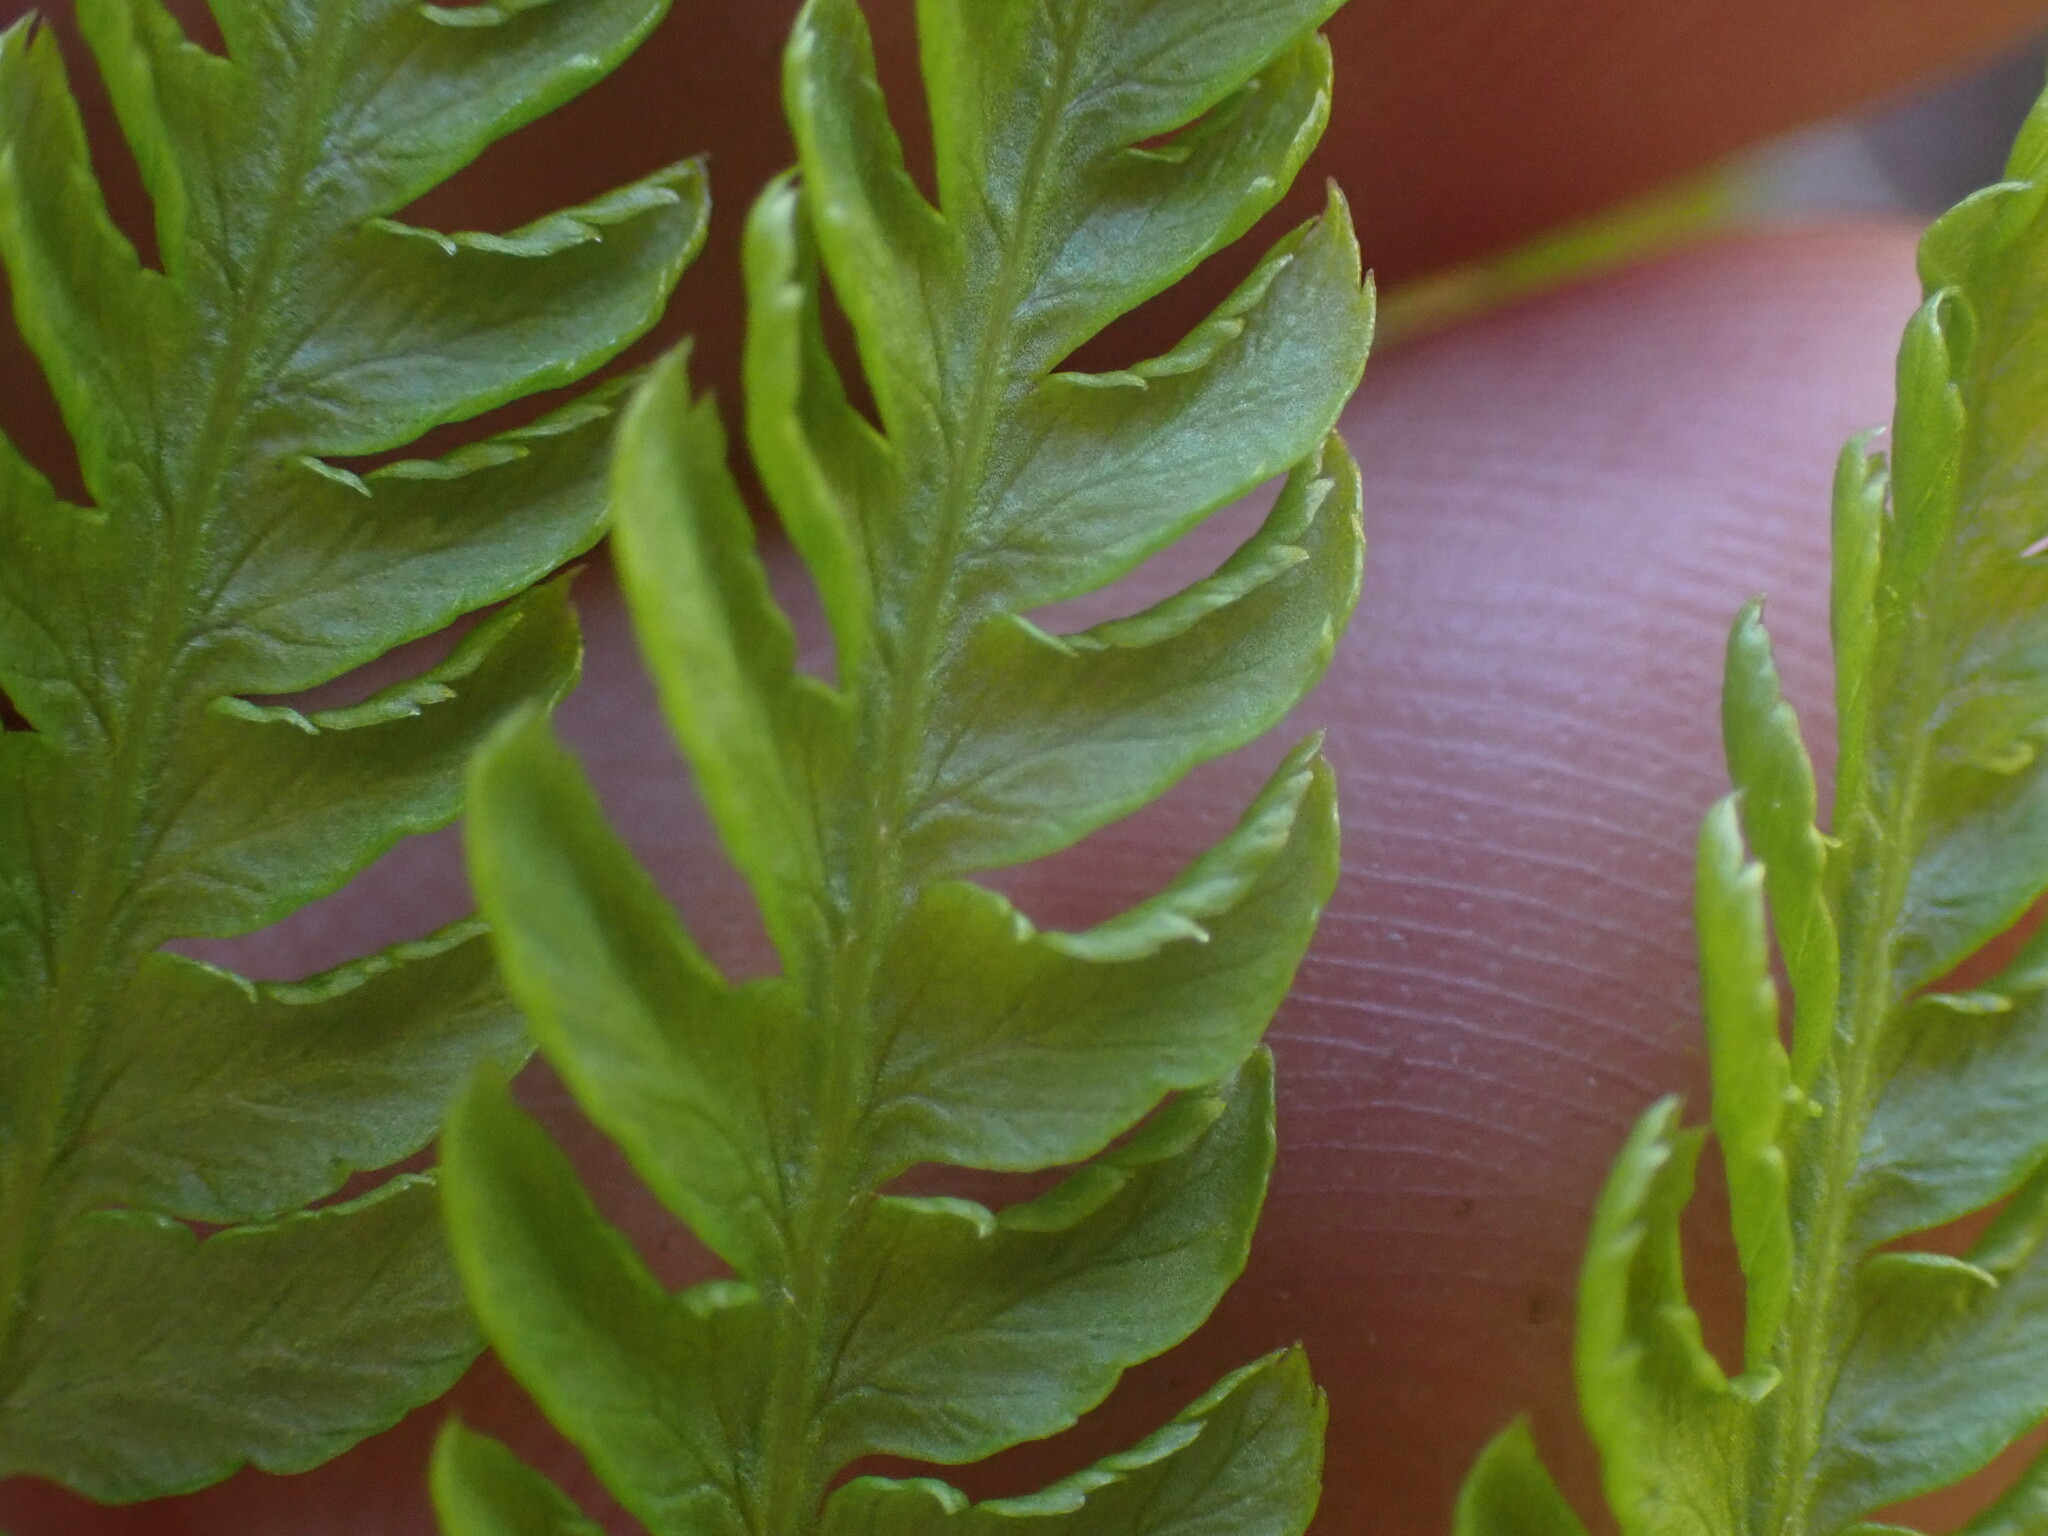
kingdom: Plantae
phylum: Tracheophyta
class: Polypodiopsida
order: Polypodiales
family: Athyriaceae
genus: Athyrium
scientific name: Athyrium filix-femina
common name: Lady fern
